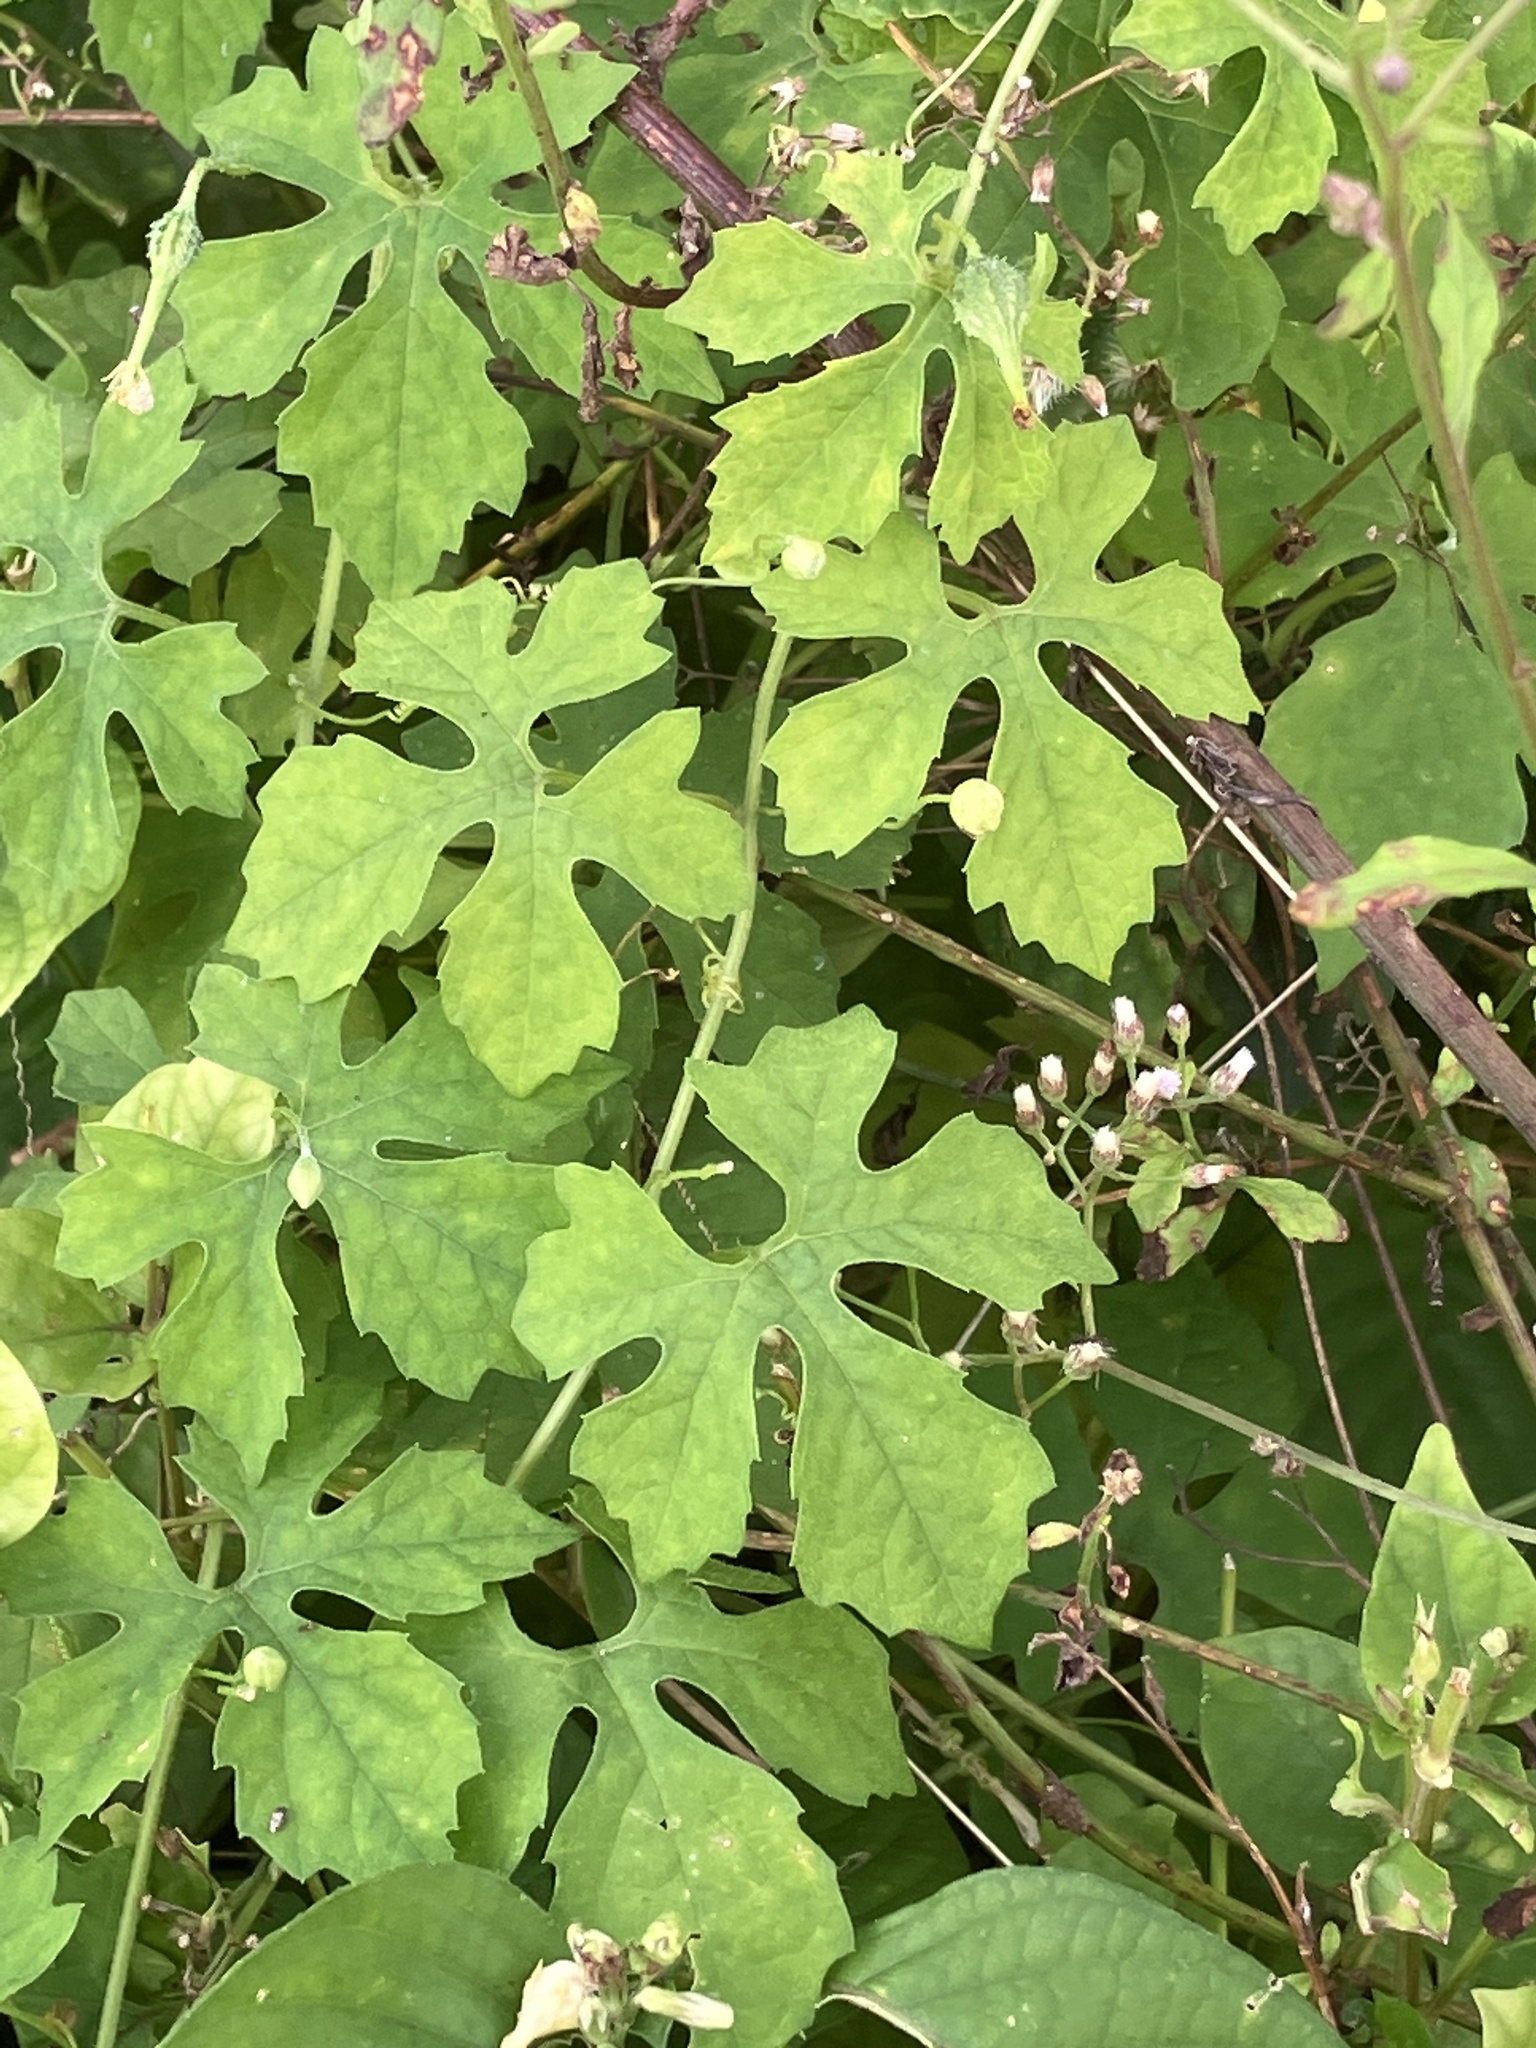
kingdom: Plantae
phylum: Tracheophyta
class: Magnoliopsida
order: Cucurbitales
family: Cucurbitaceae
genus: Momordica
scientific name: Momordica charantia
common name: Balsampear
